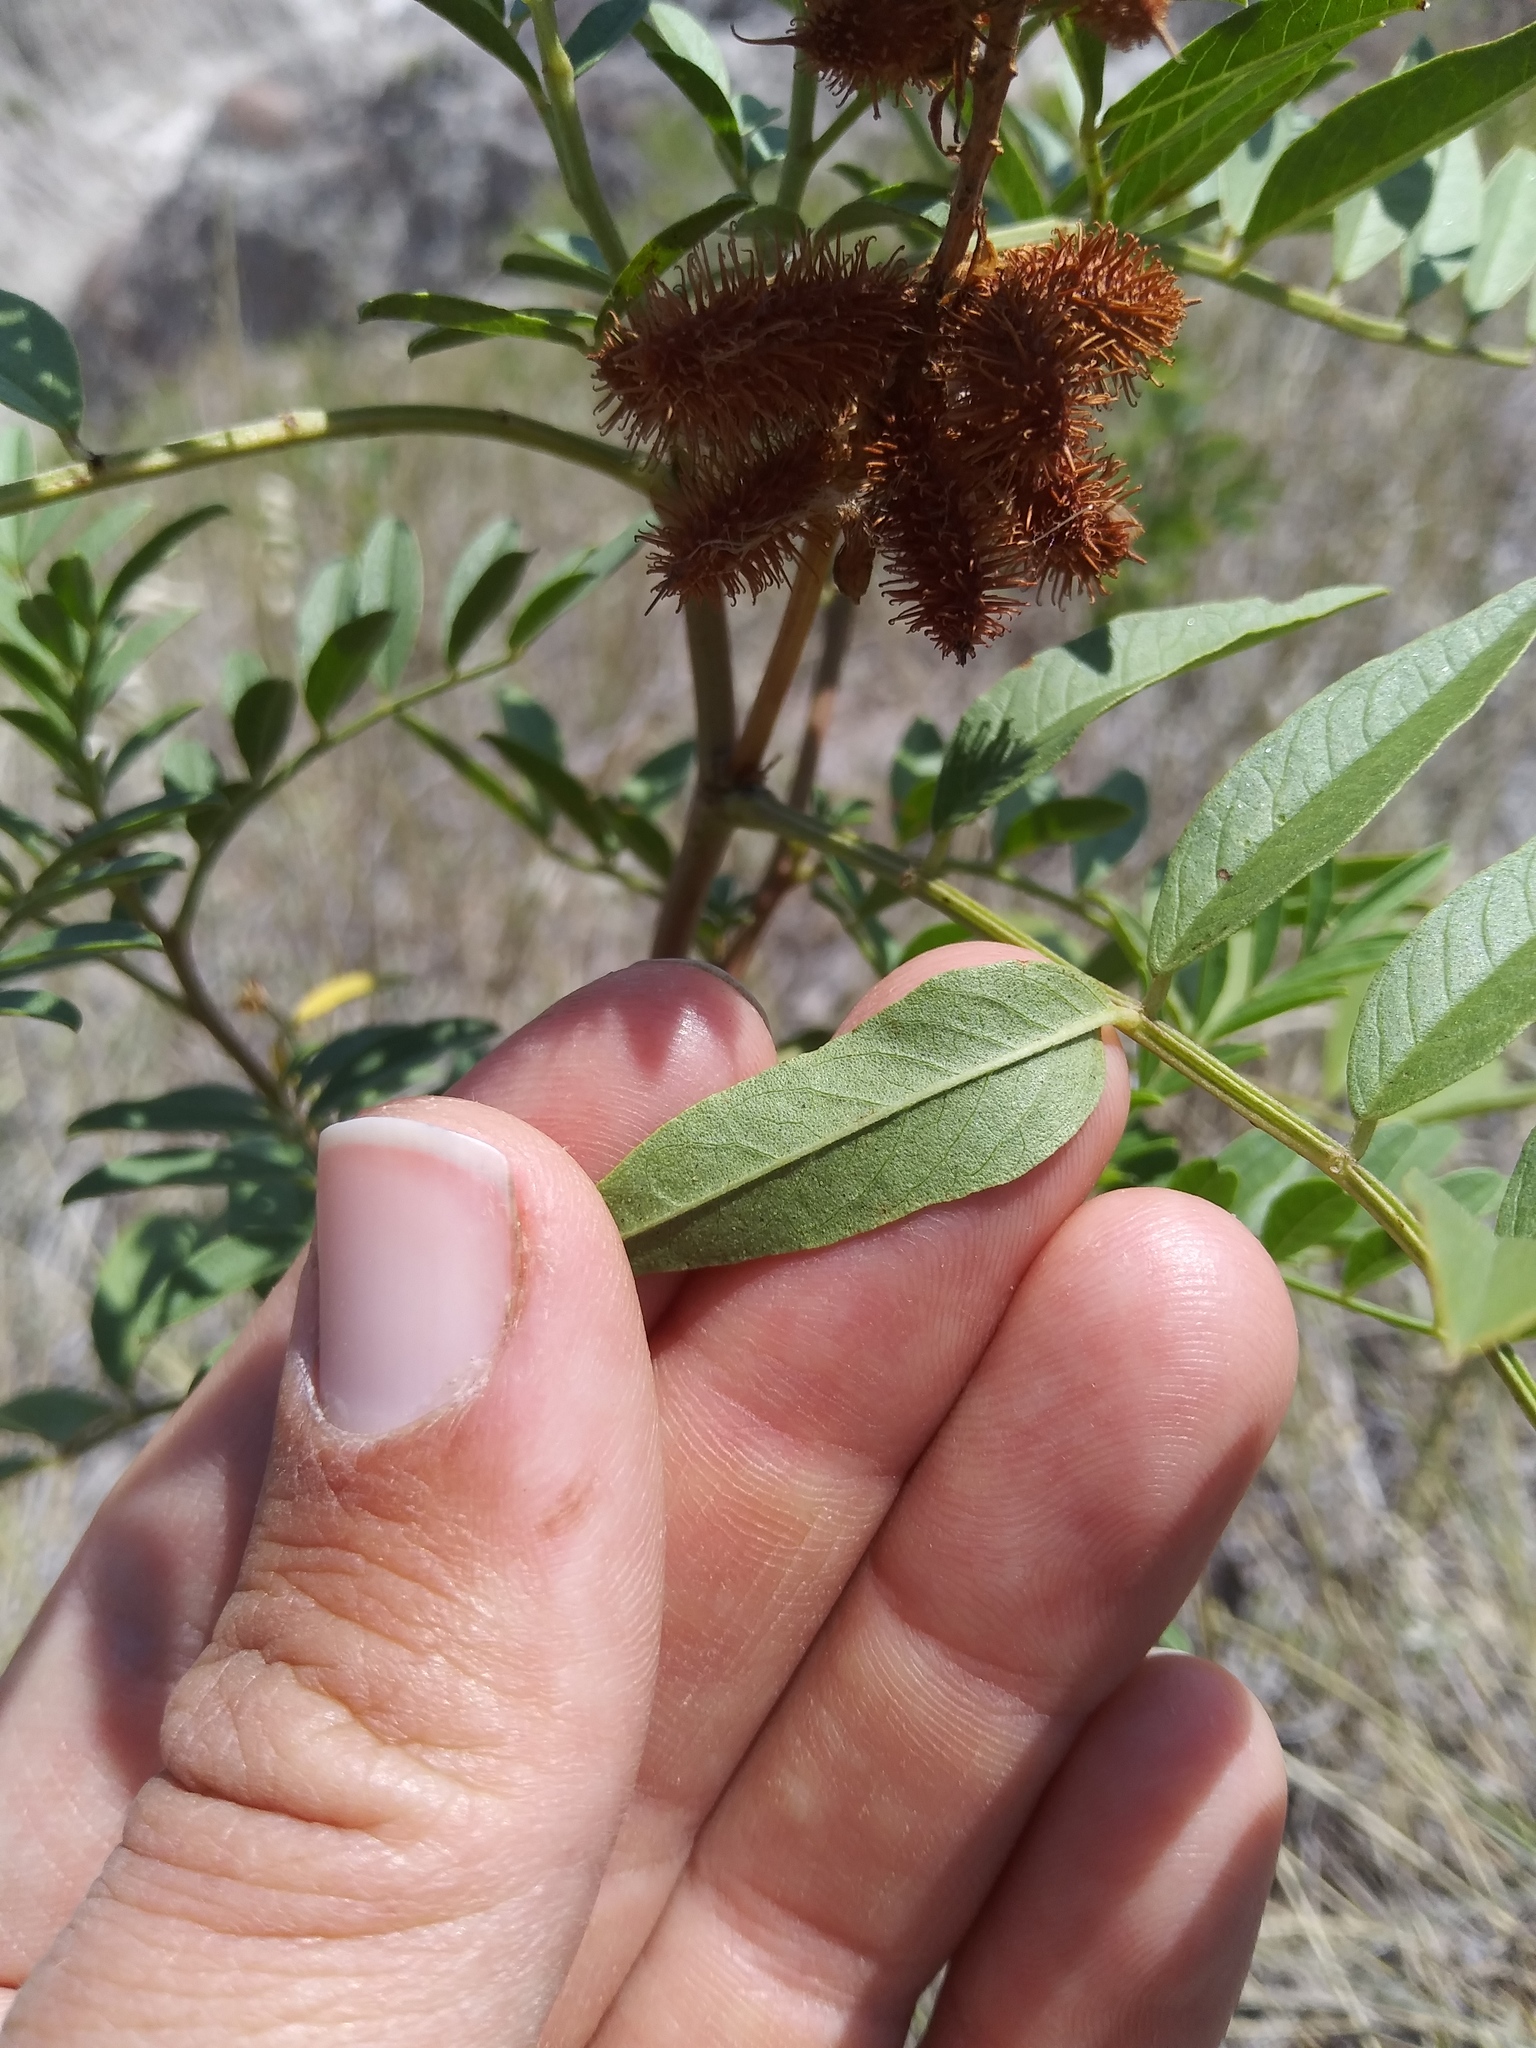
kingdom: Plantae
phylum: Tracheophyta
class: Magnoliopsida
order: Fabales
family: Fabaceae
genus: Glycyrrhiza
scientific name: Glycyrrhiza lepidota
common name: American liquorice
